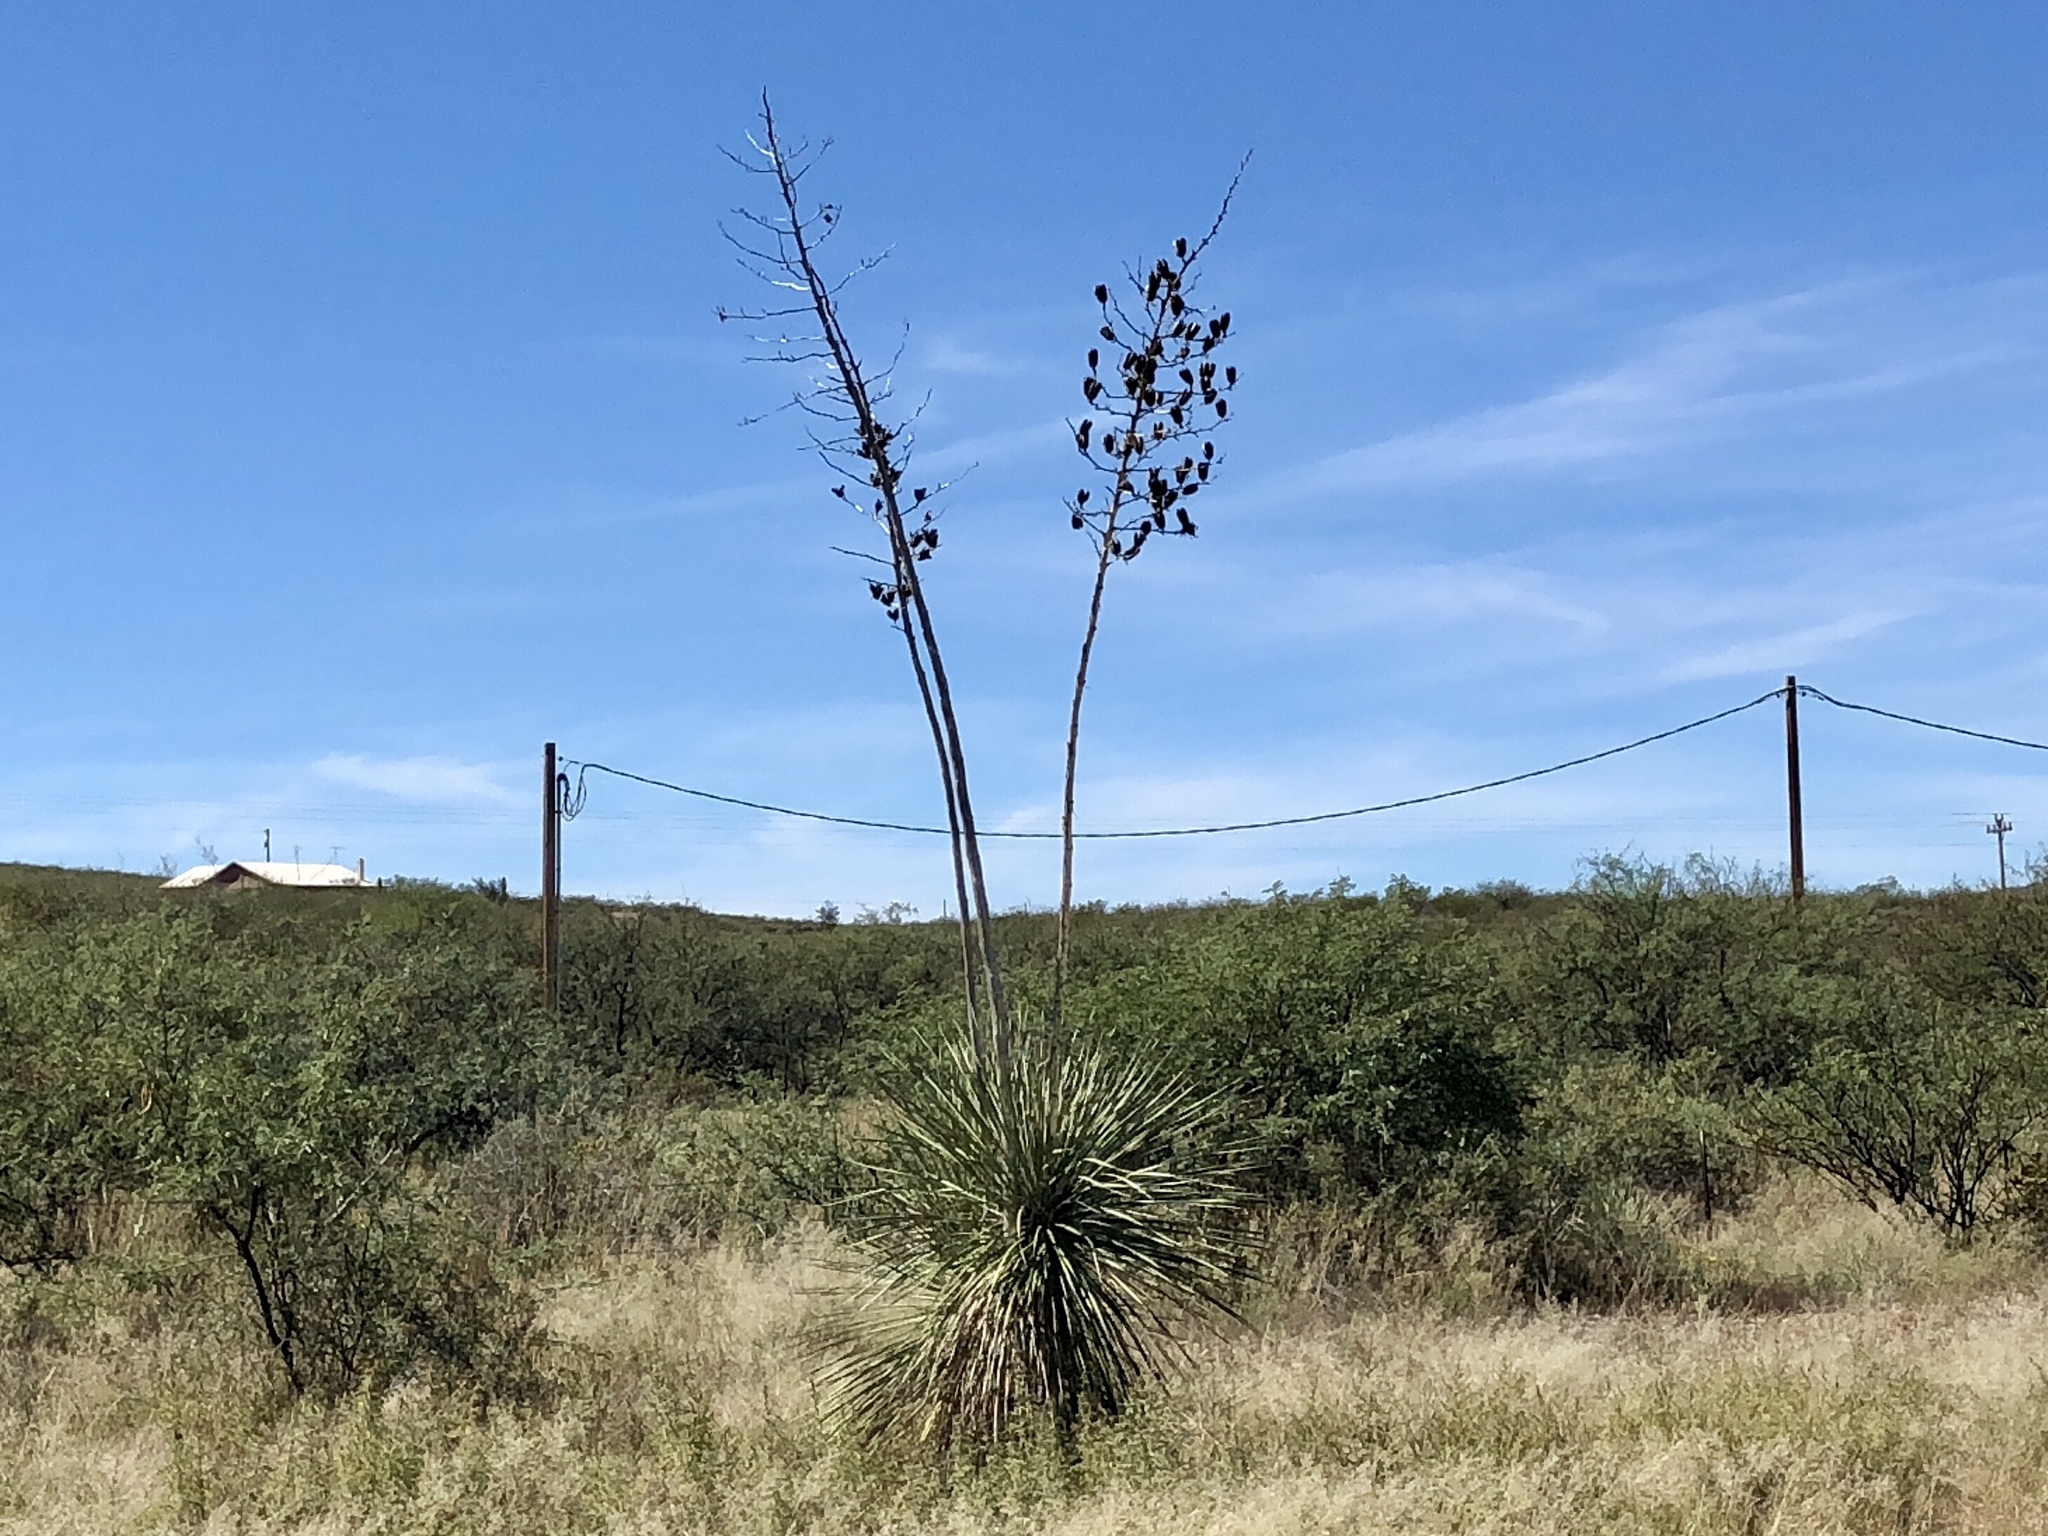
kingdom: Plantae
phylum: Tracheophyta
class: Liliopsida
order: Asparagales
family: Asparagaceae
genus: Yucca
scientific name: Yucca elata
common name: Palmella
